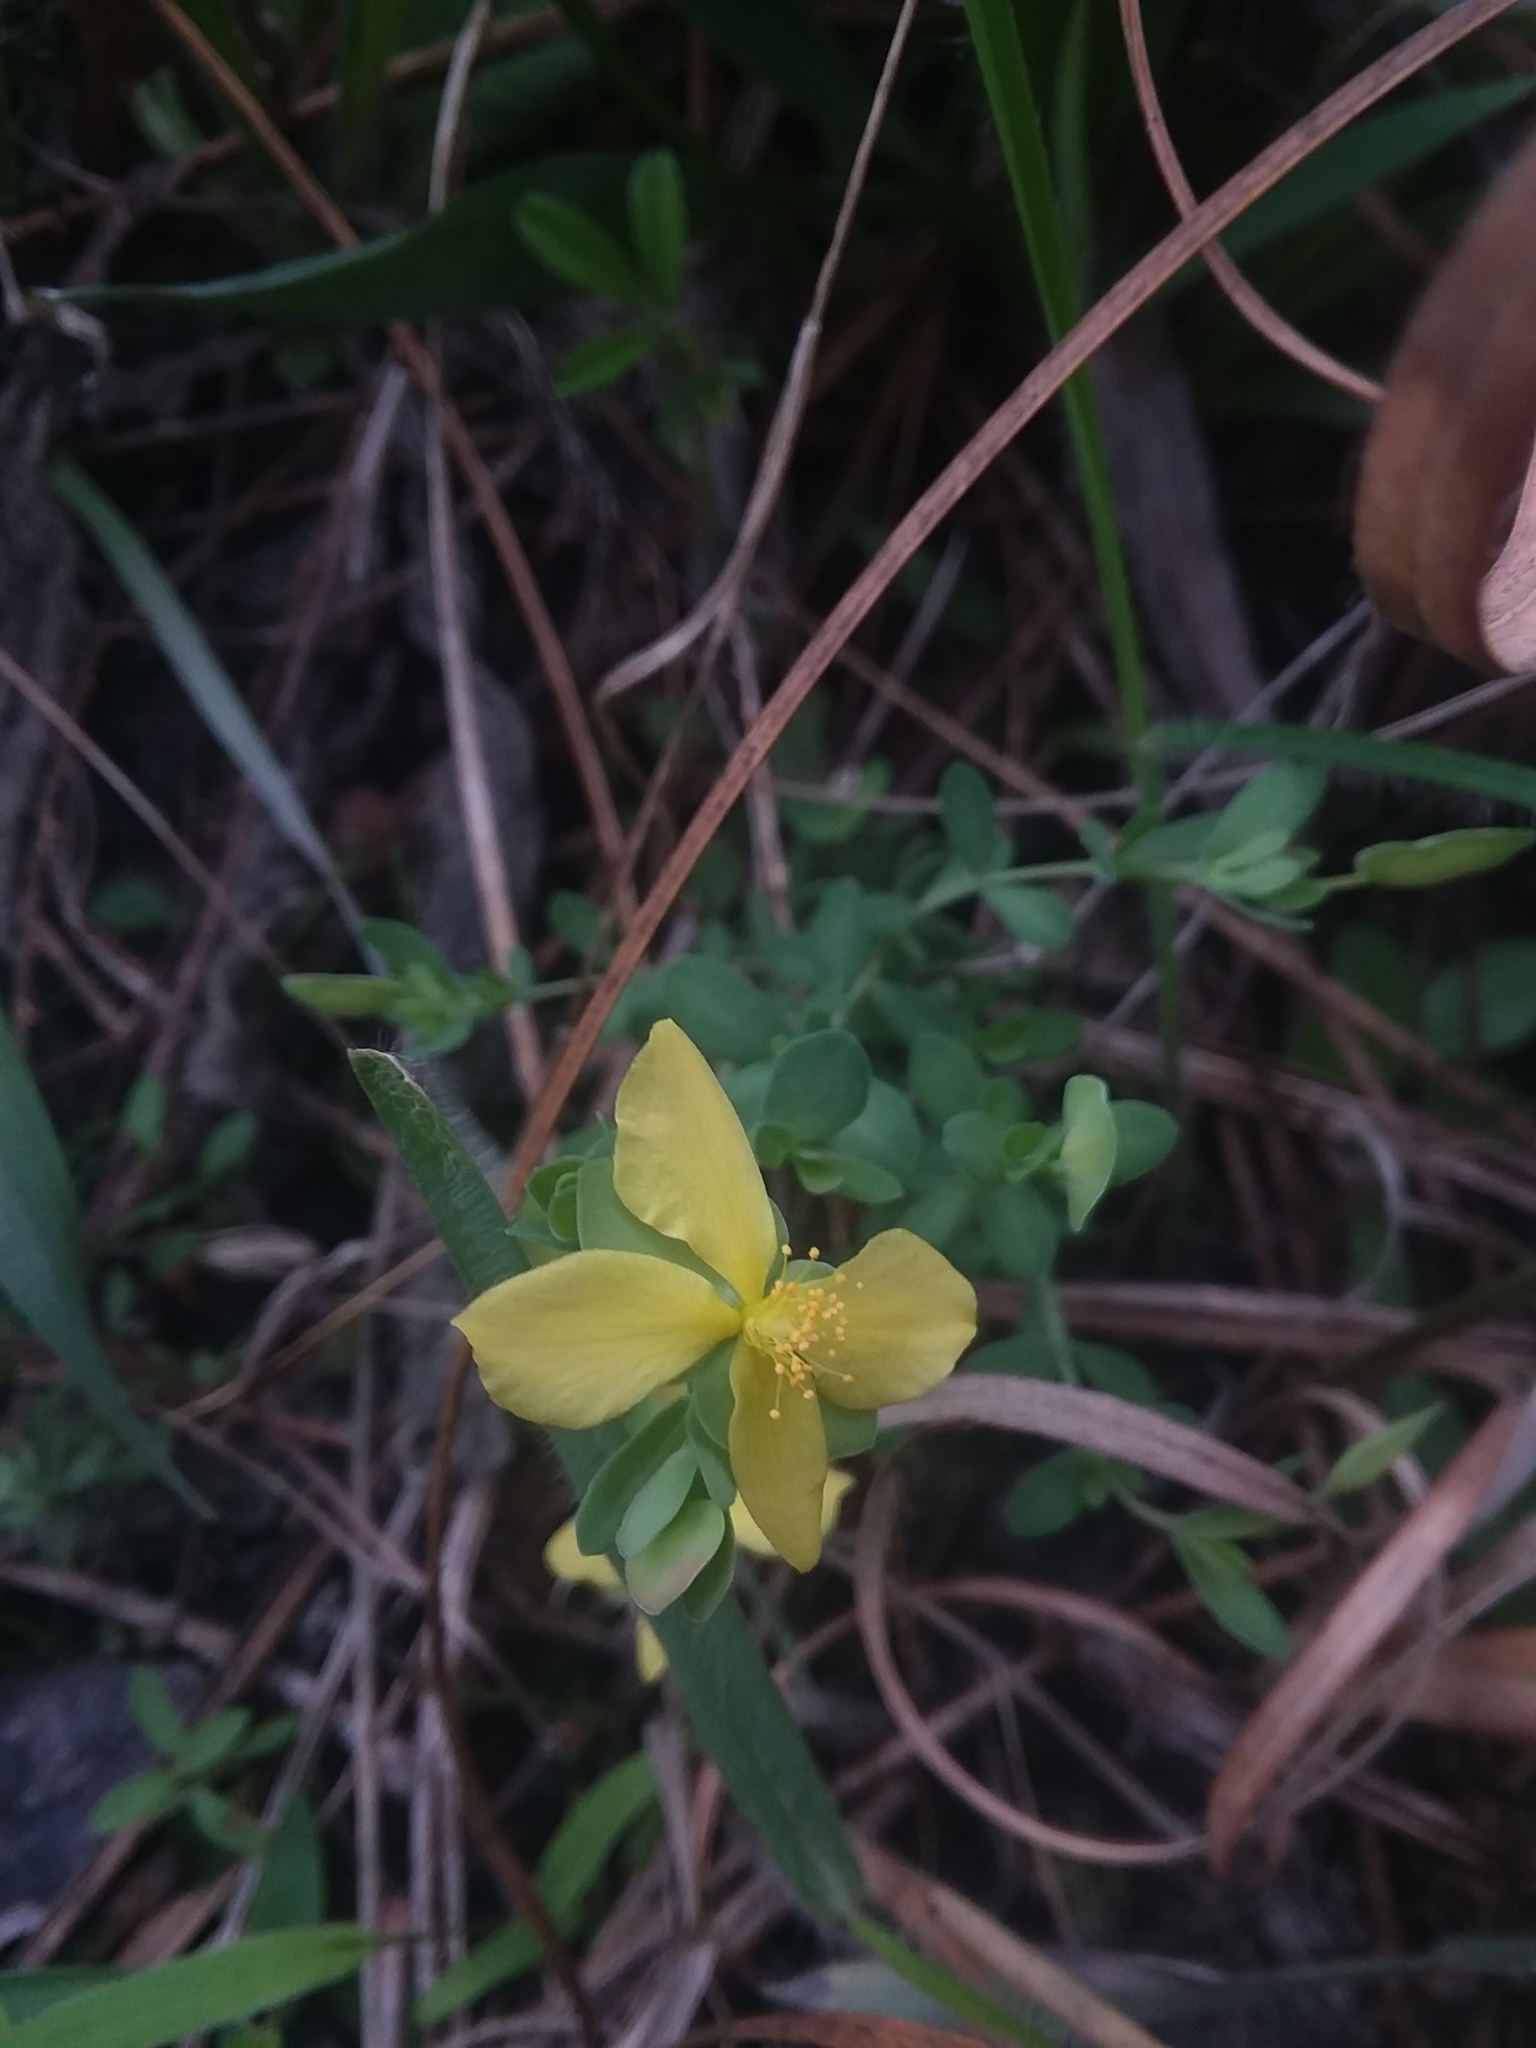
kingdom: Plantae
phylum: Tracheophyta
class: Magnoliopsida
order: Malpighiales
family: Hypericaceae
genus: Hypericum
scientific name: Hypericum suffruticosum
